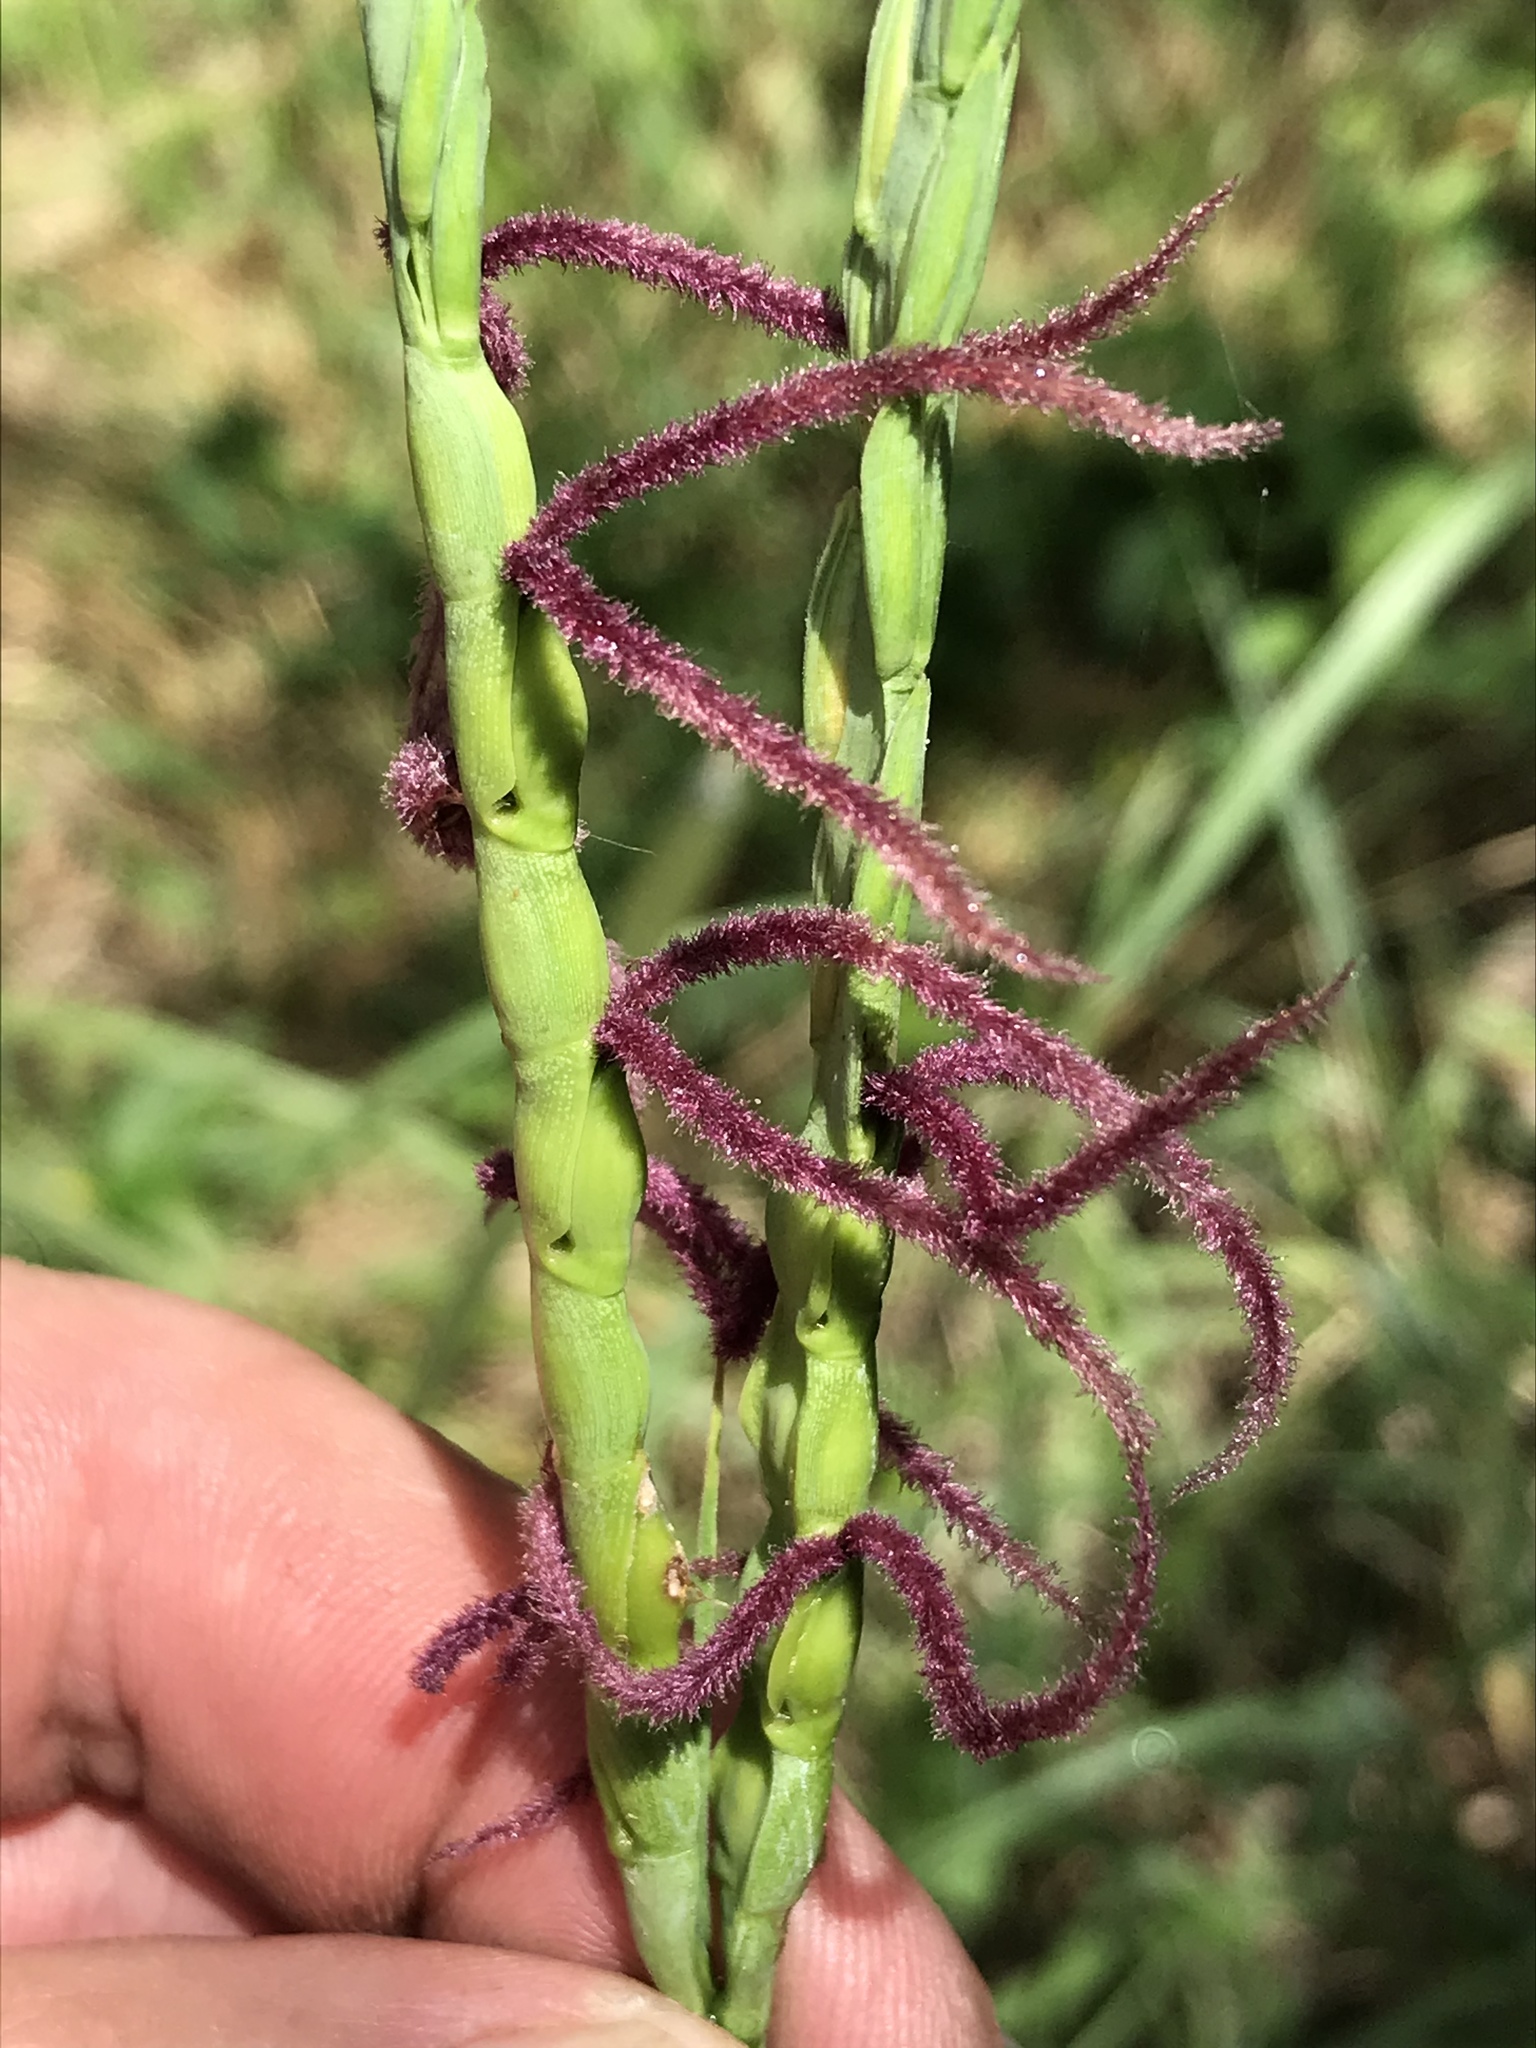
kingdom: Plantae
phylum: Tracheophyta
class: Liliopsida
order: Poales
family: Poaceae
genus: Tripsacum
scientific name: Tripsacum dactyloides
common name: Buffalo-grass
